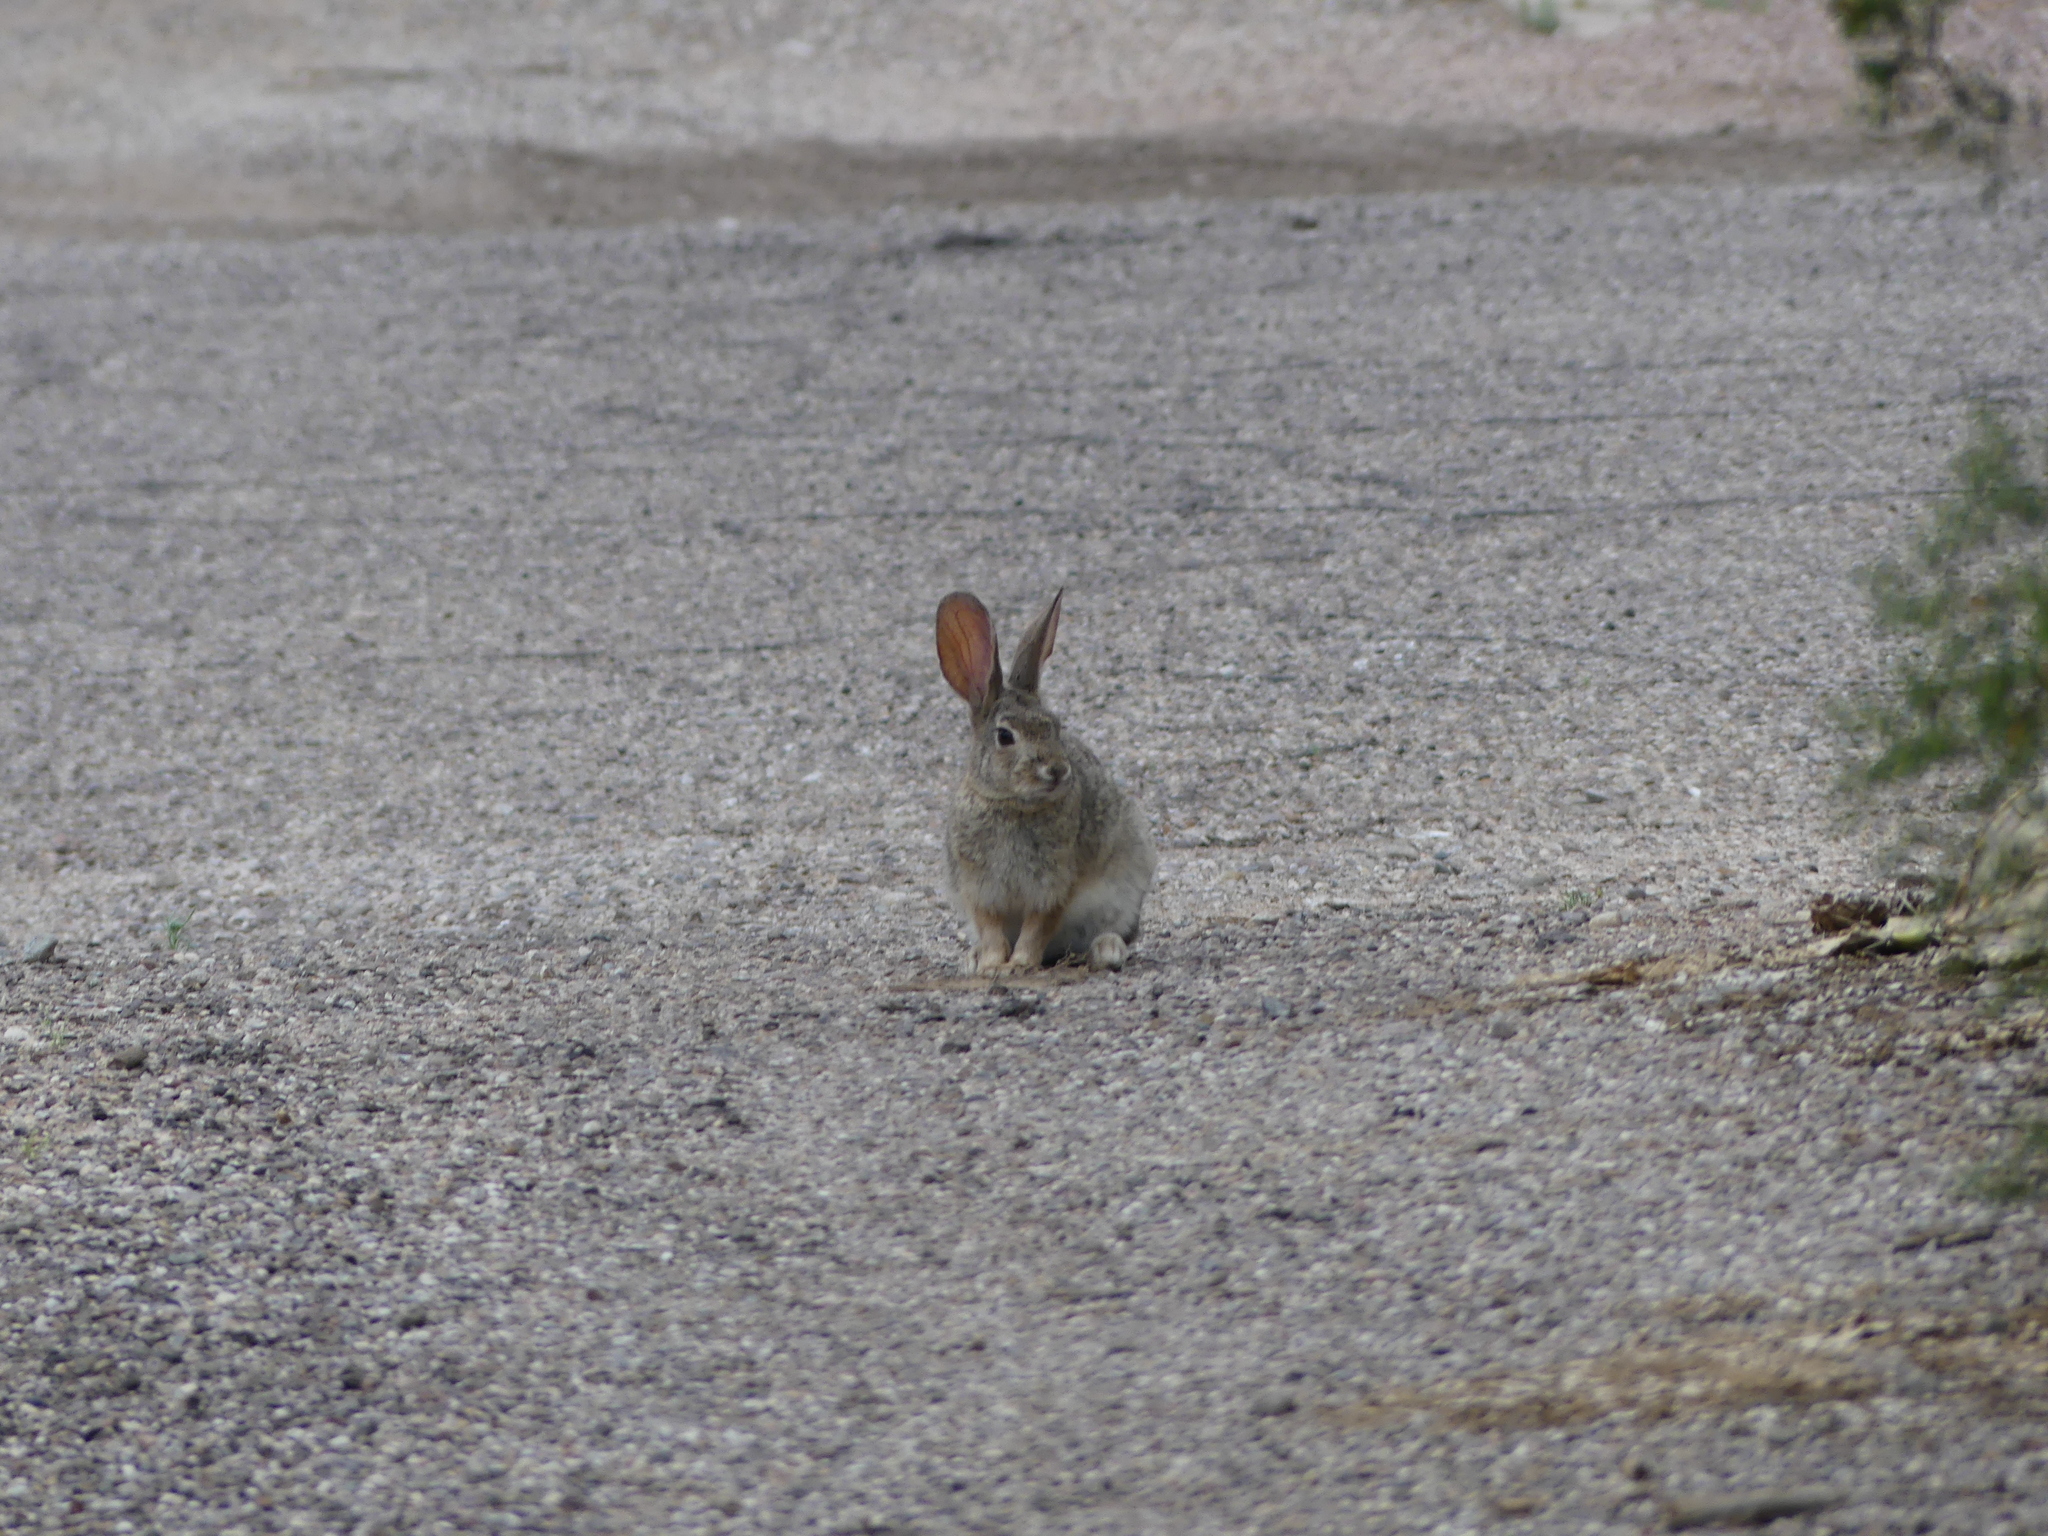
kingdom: Animalia
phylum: Chordata
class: Mammalia
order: Lagomorpha
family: Leporidae
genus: Sylvilagus
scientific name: Sylvilagus audubonii
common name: Desert cottontail
